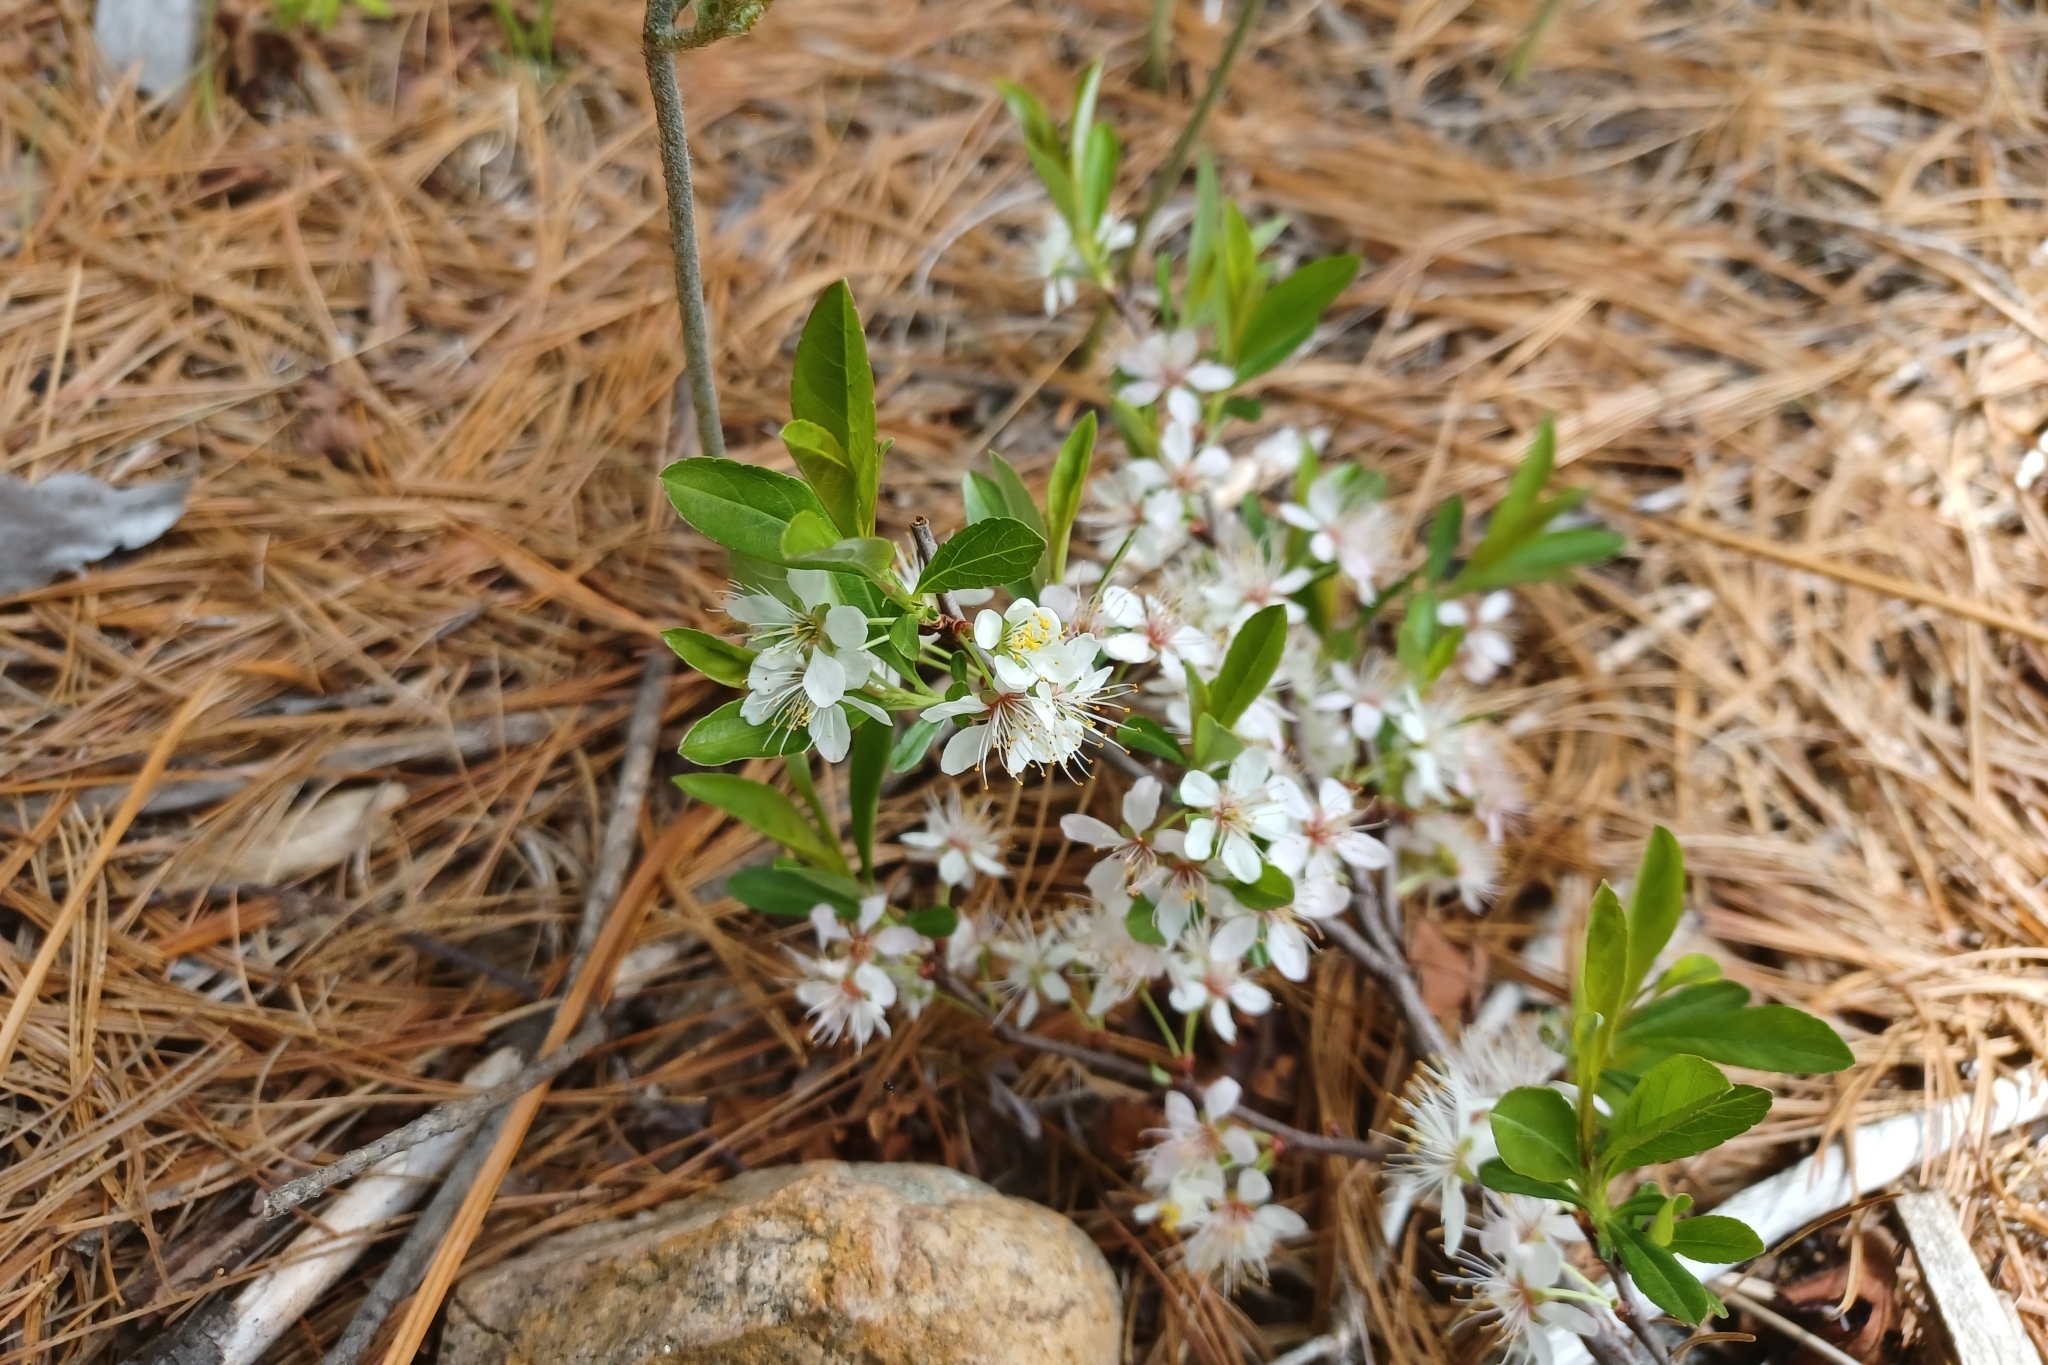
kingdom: Plantae
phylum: Tracheophyta
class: Magnoliopsida
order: Rosales
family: Rosaceae
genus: Prunus
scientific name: Prunus pumila
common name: Dwarf cherry
